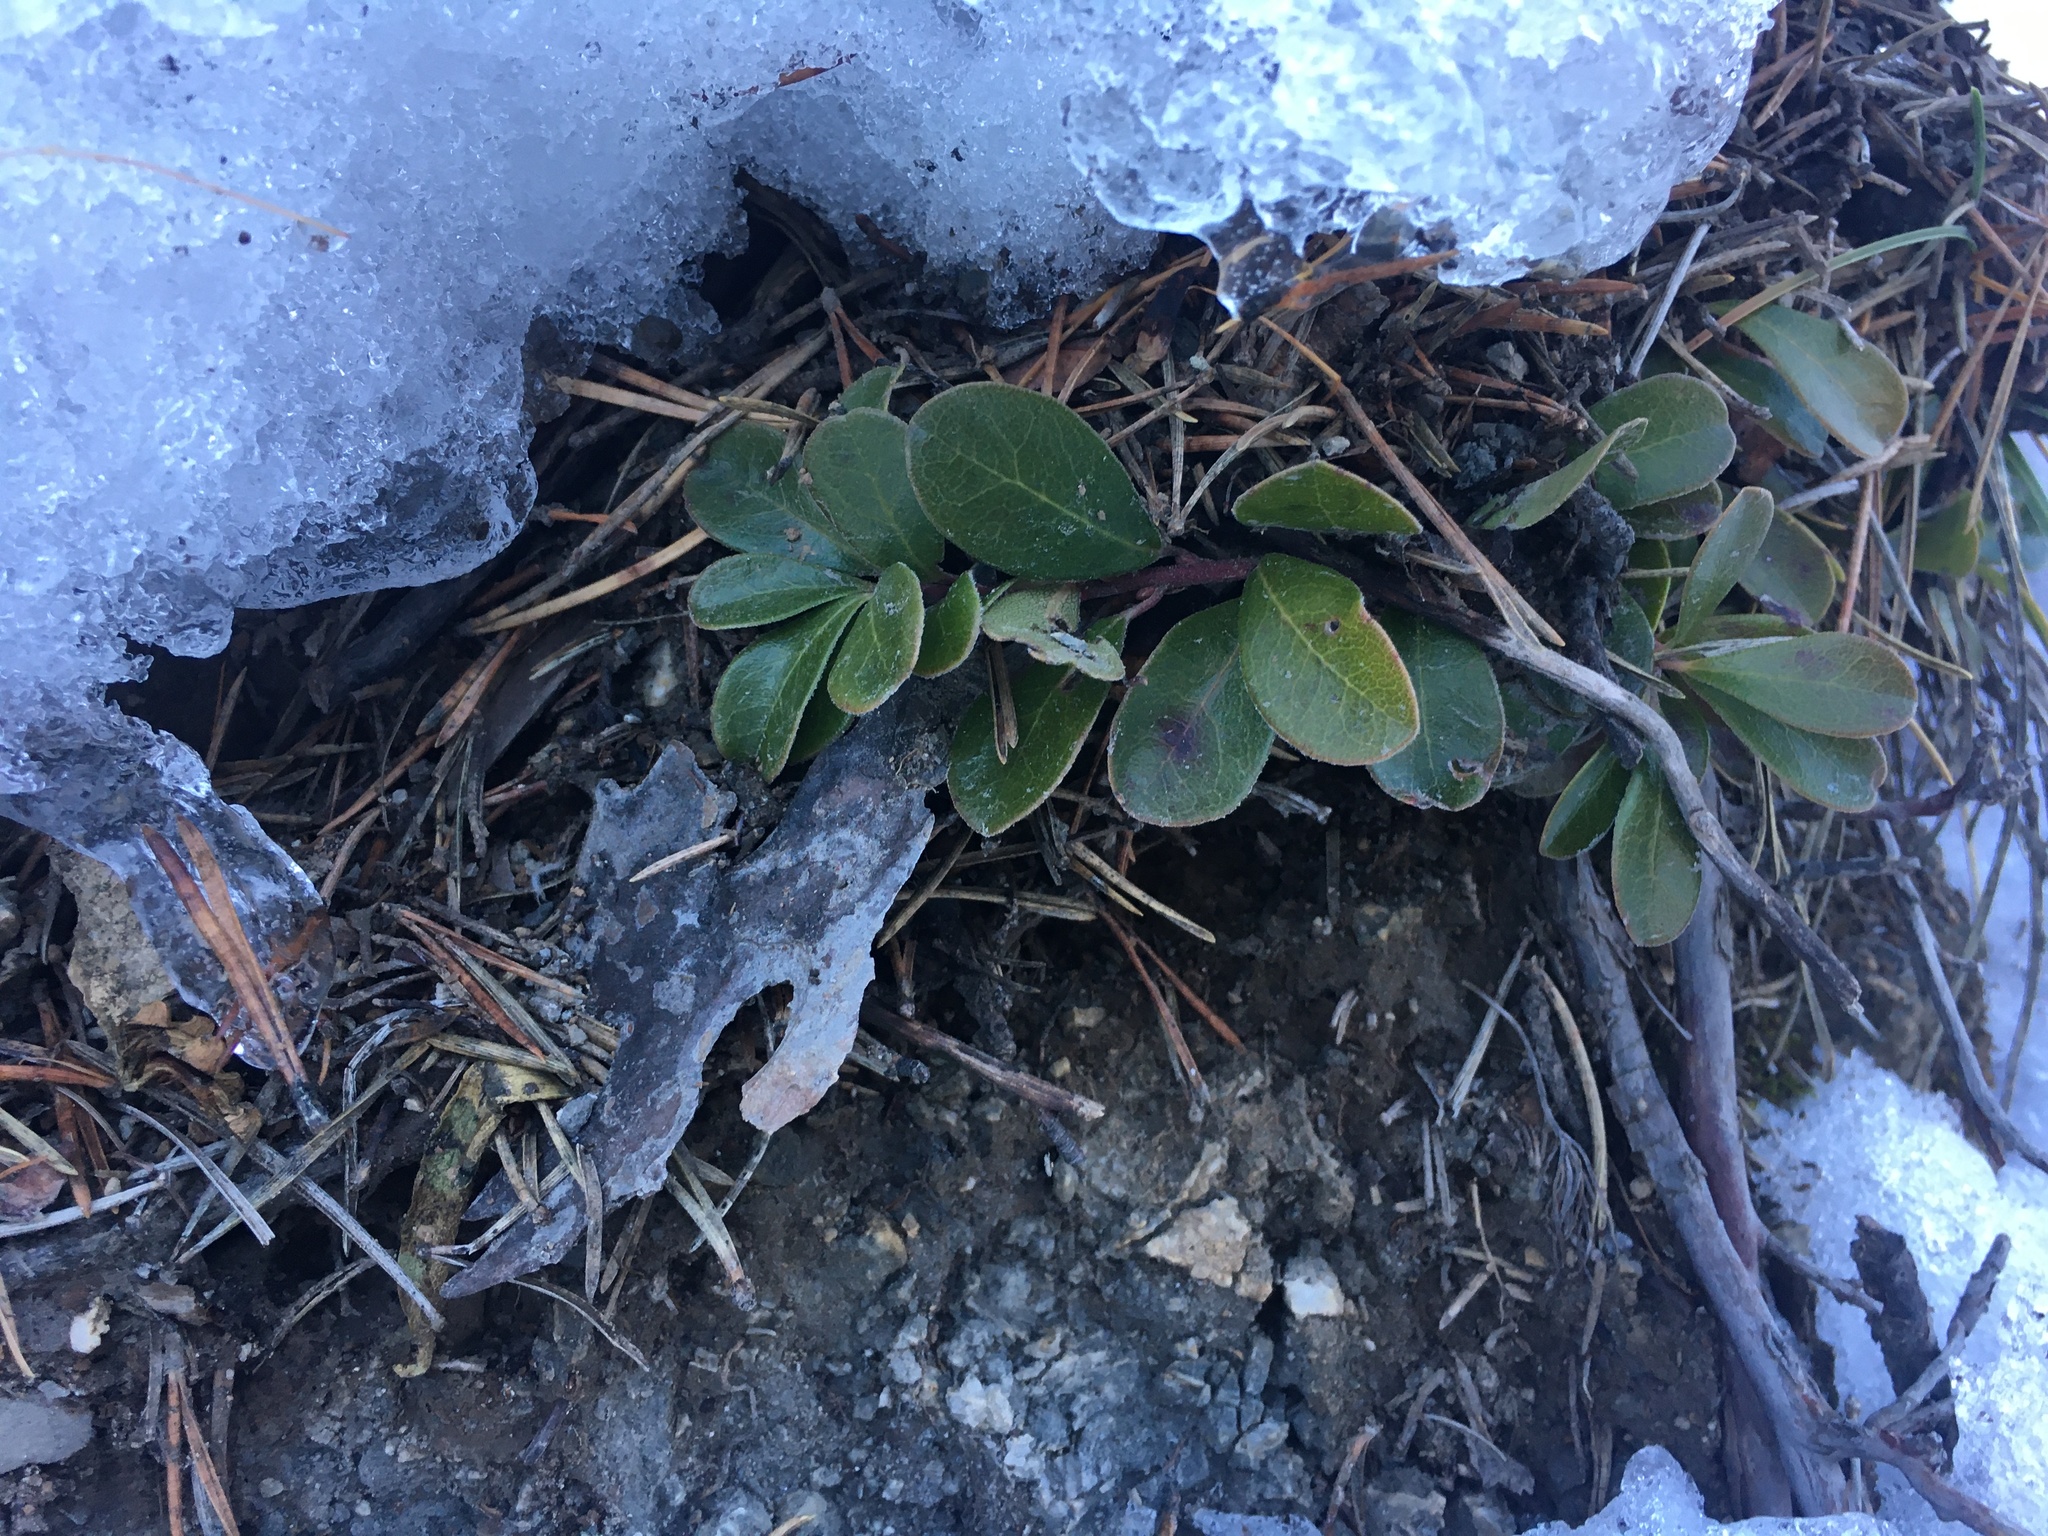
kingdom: Plantae
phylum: Tracheophyta
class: Magnoliopsida
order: Ericales
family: Ericaceae
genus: Arctostaphylos
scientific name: Arctostaphylos uva-ursi
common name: Bearberry
